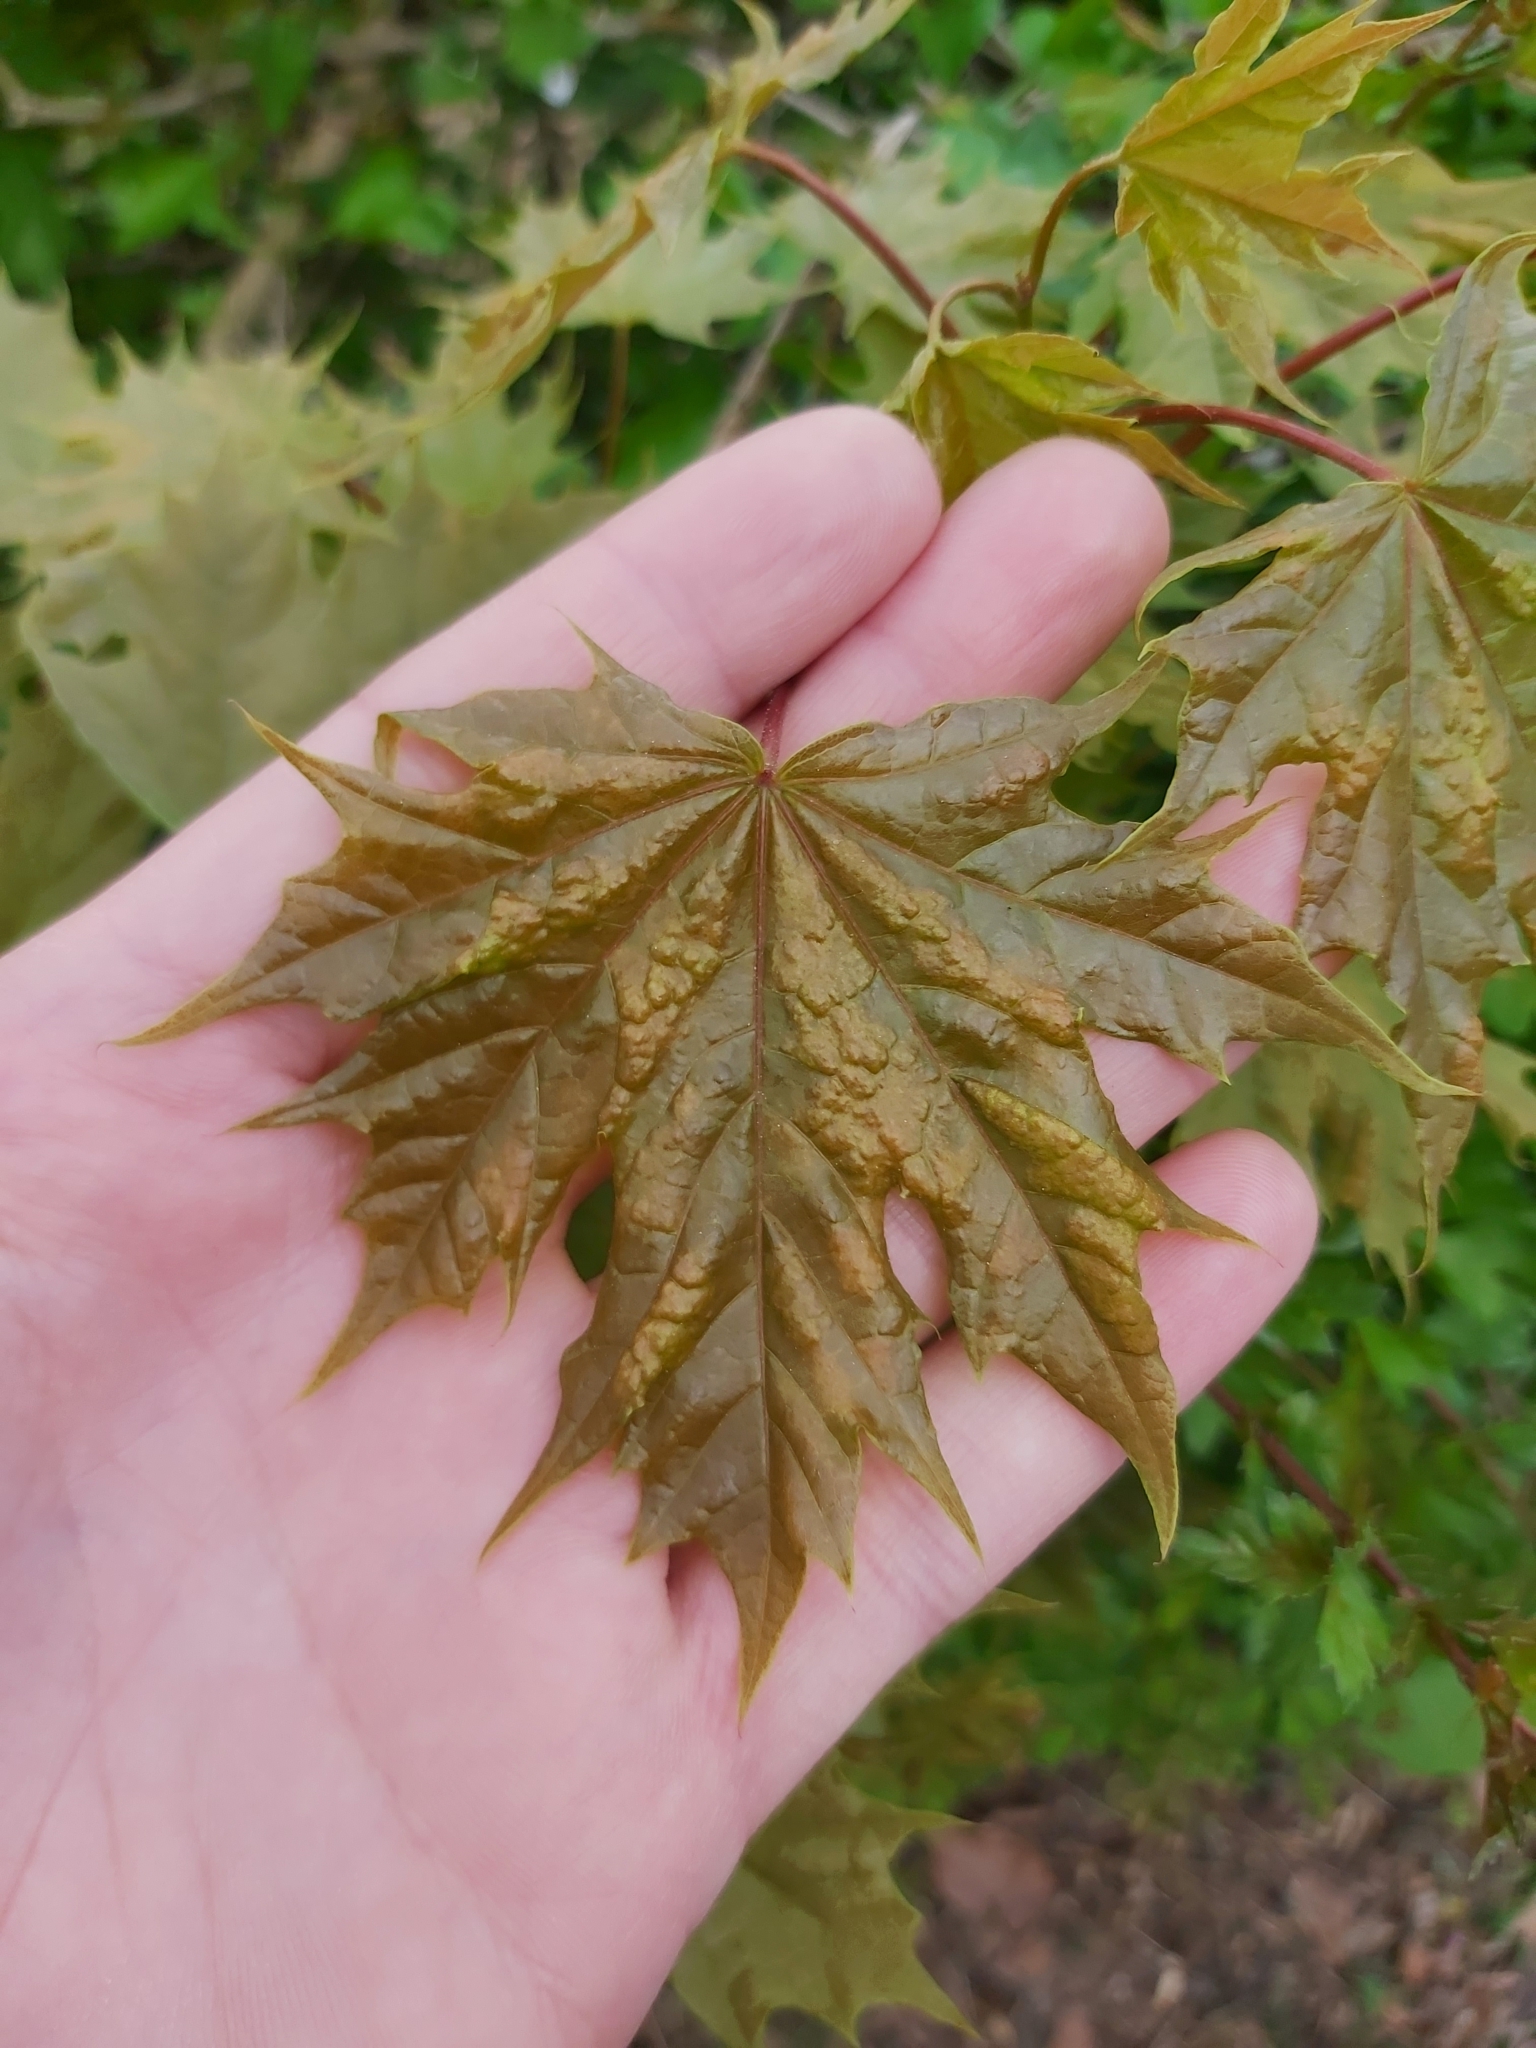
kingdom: Plantae
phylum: Tracheophyta
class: Magnoliopsida
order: Sapindales
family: Sapindaceae
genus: Acer
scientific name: Acer platanoides
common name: Norway maple
